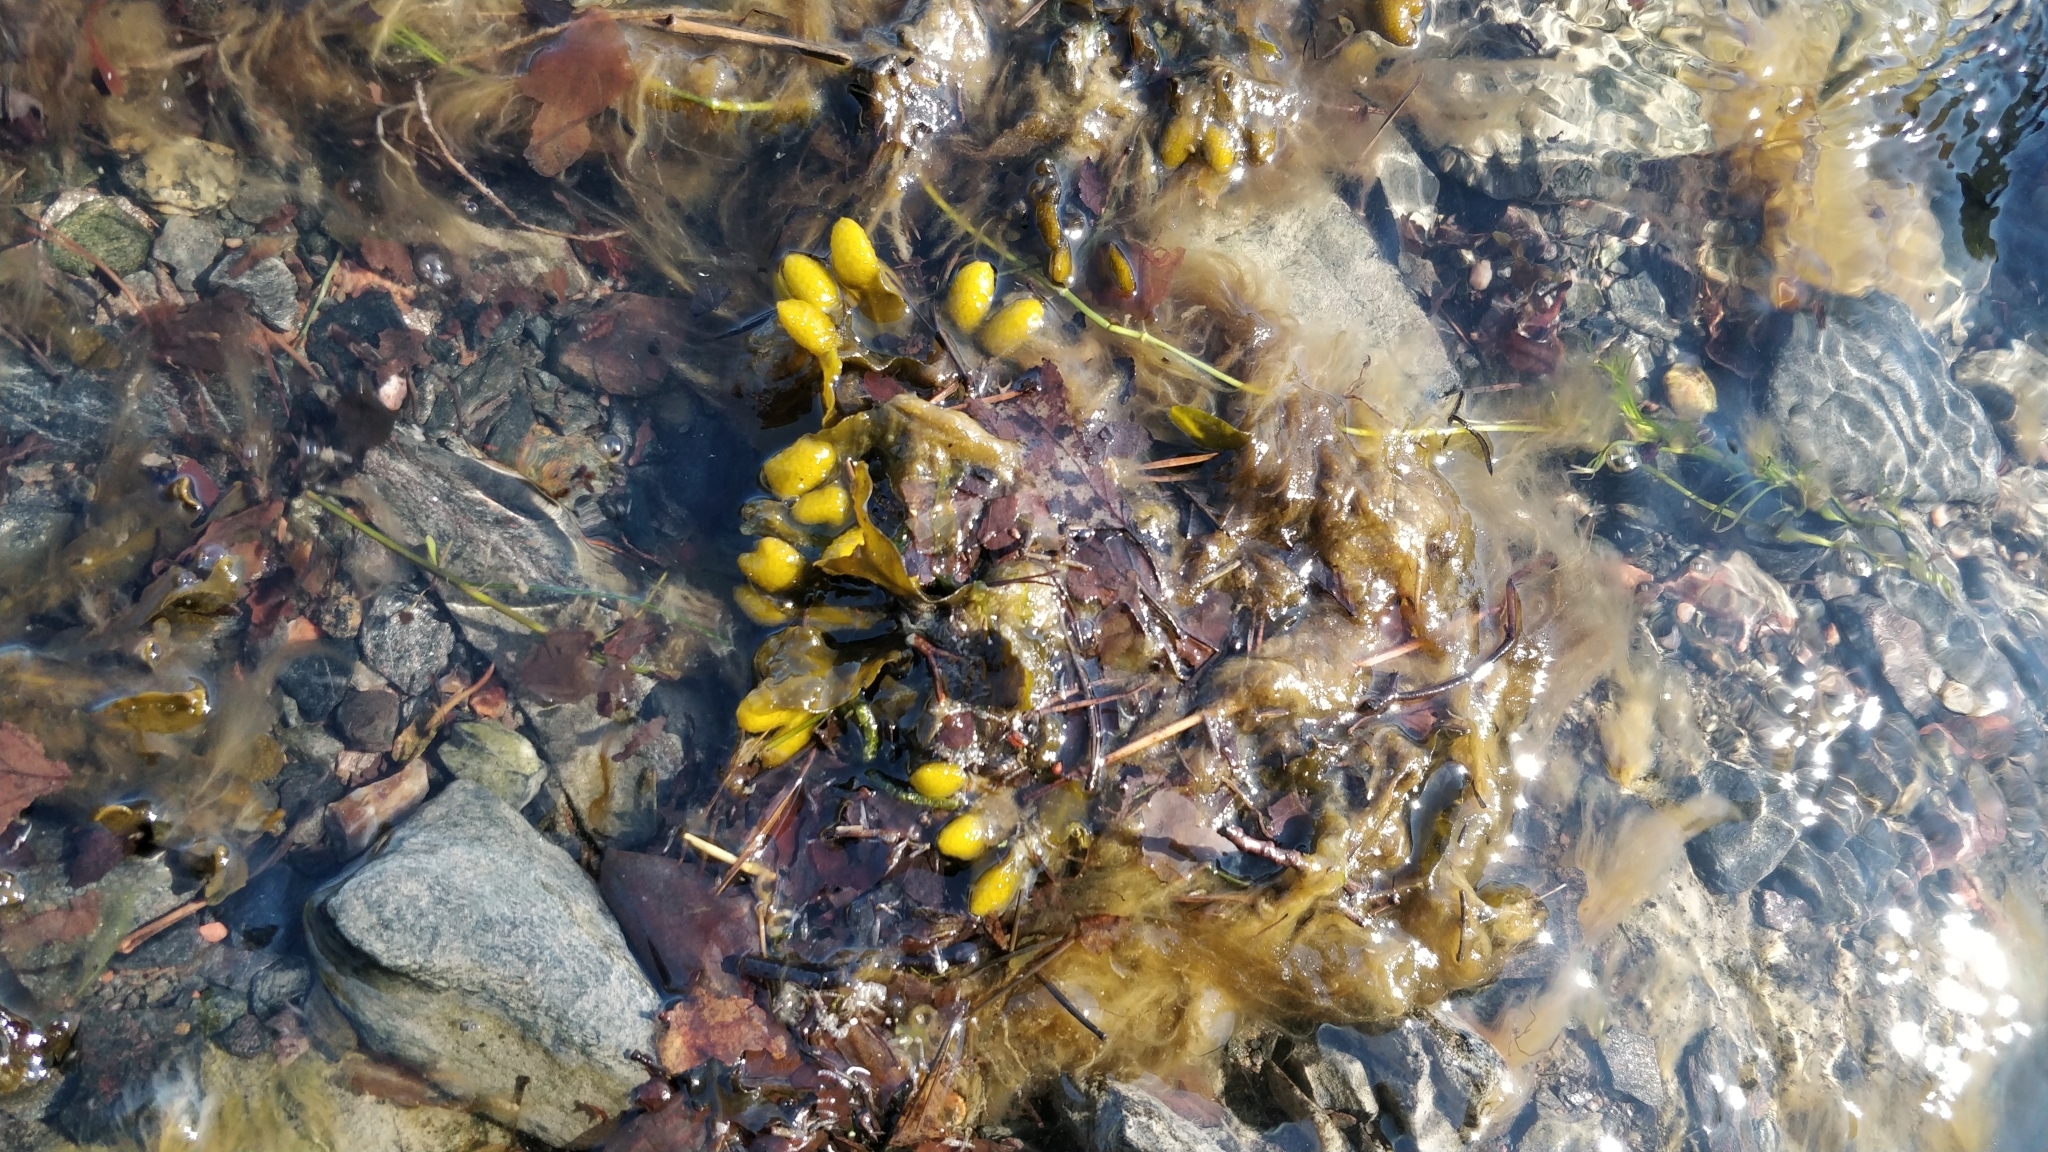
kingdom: Chromista
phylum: Ochrophyta
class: Phaeophyceae
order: Fucales
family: Fucaceae
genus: Fucus
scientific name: Fucus vesiculosus
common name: Bladder wrack
